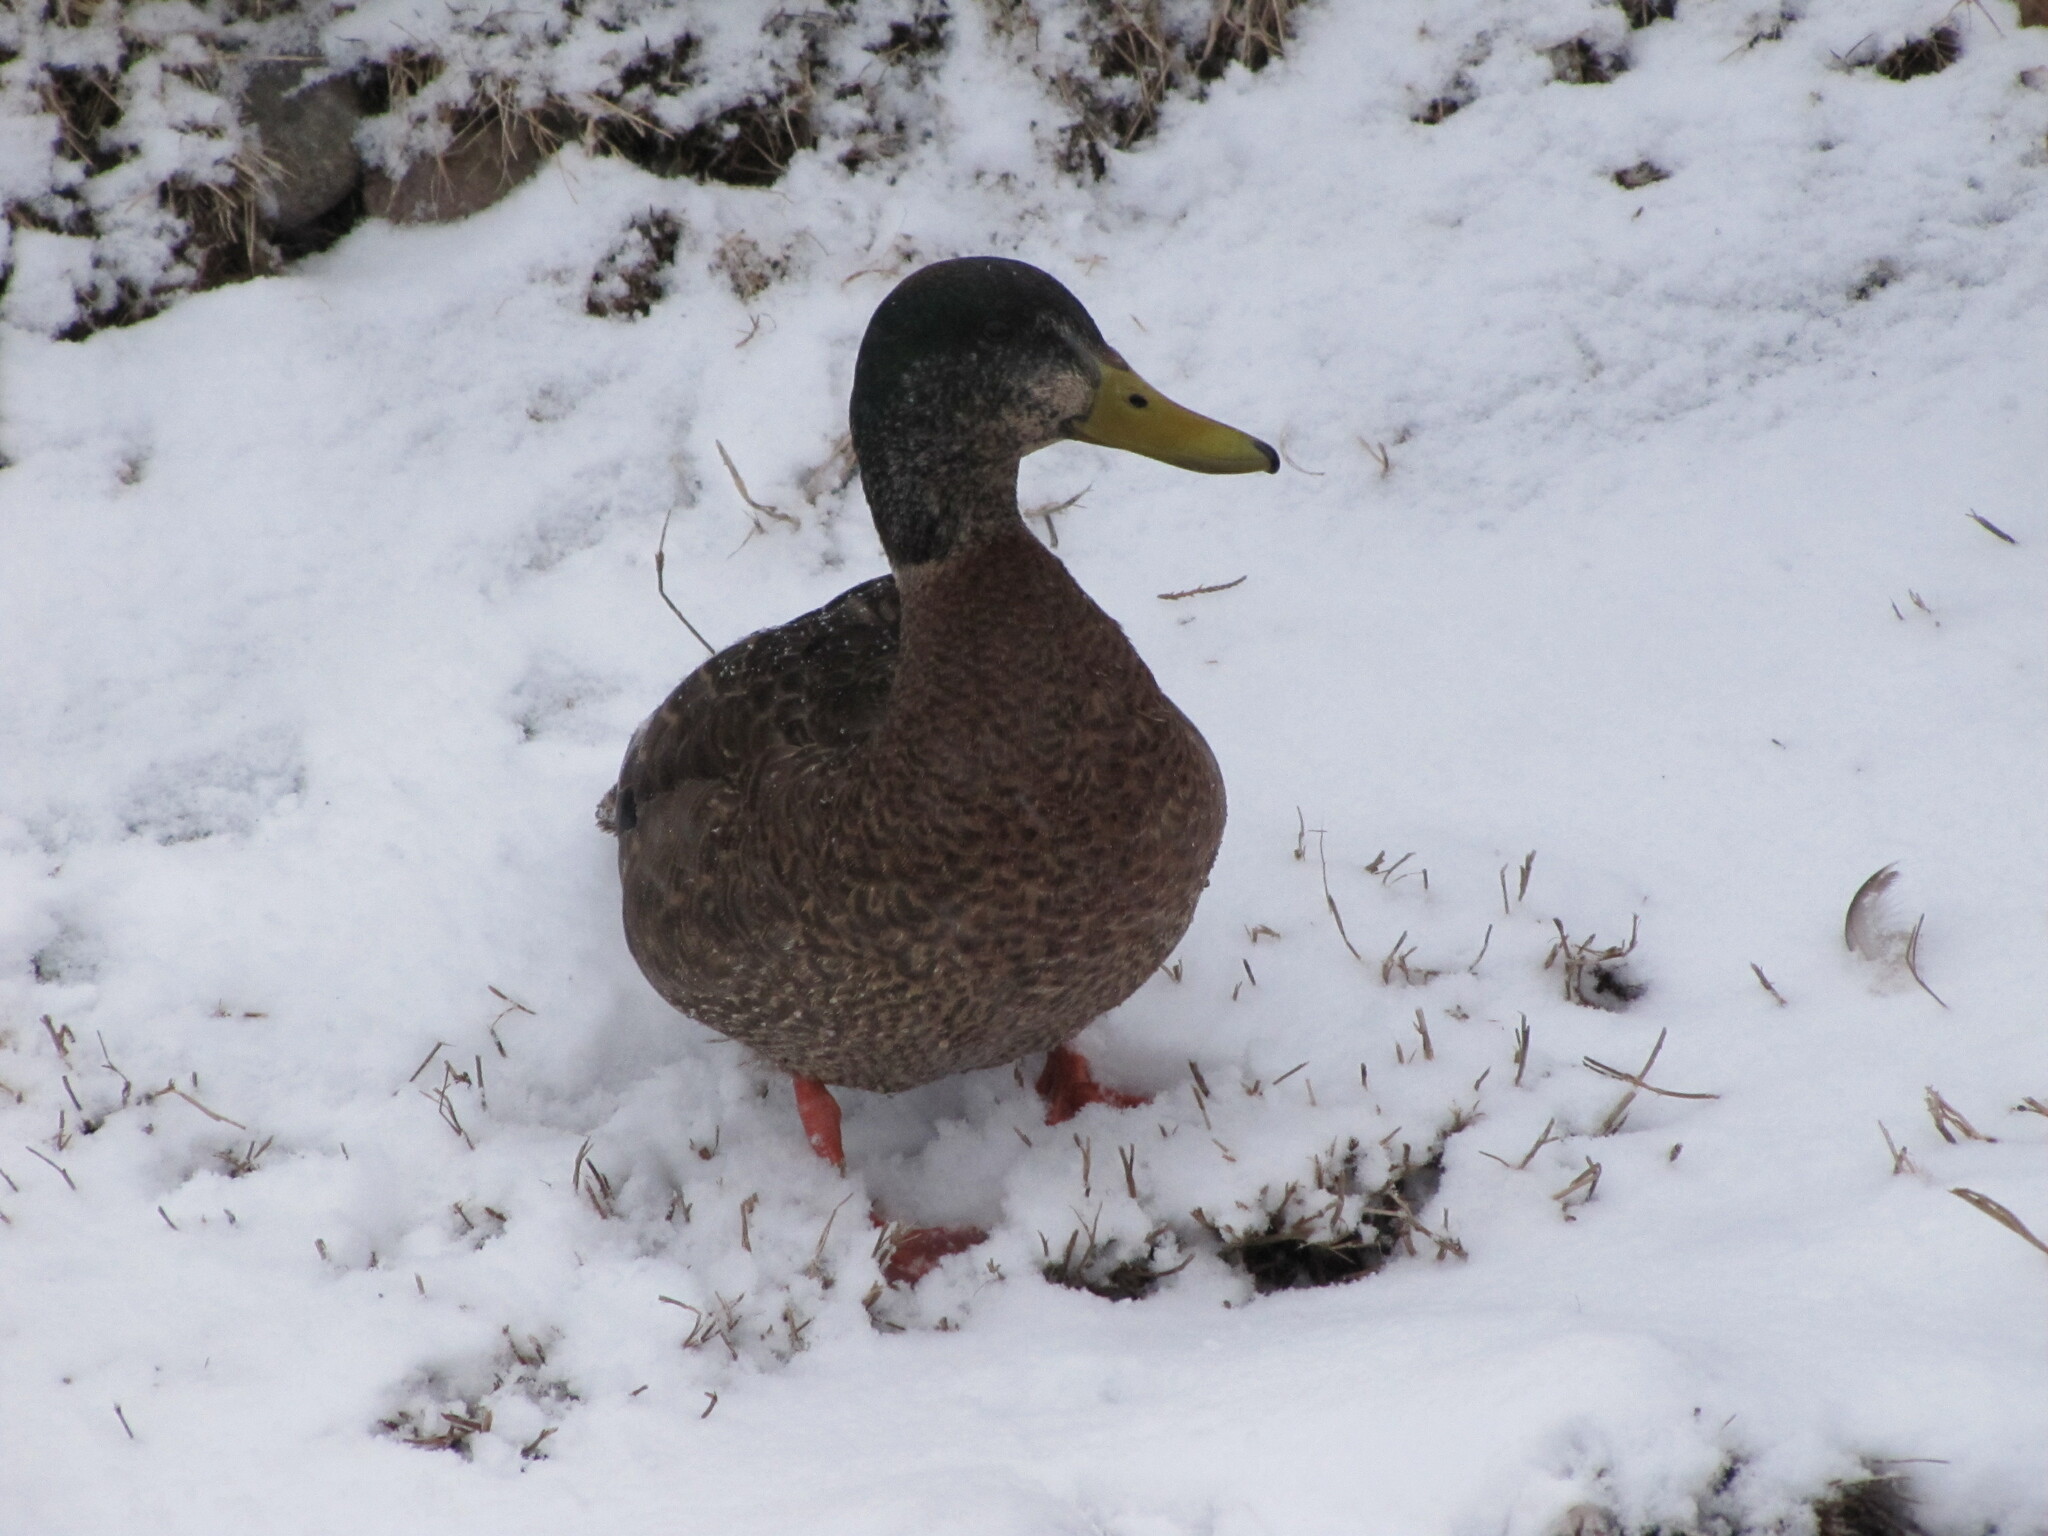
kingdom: Animalia
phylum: Chordata
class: Aves
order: Anseriformes
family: Anatidae
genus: Anas
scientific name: Anas platyrhynchos
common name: Mallard
